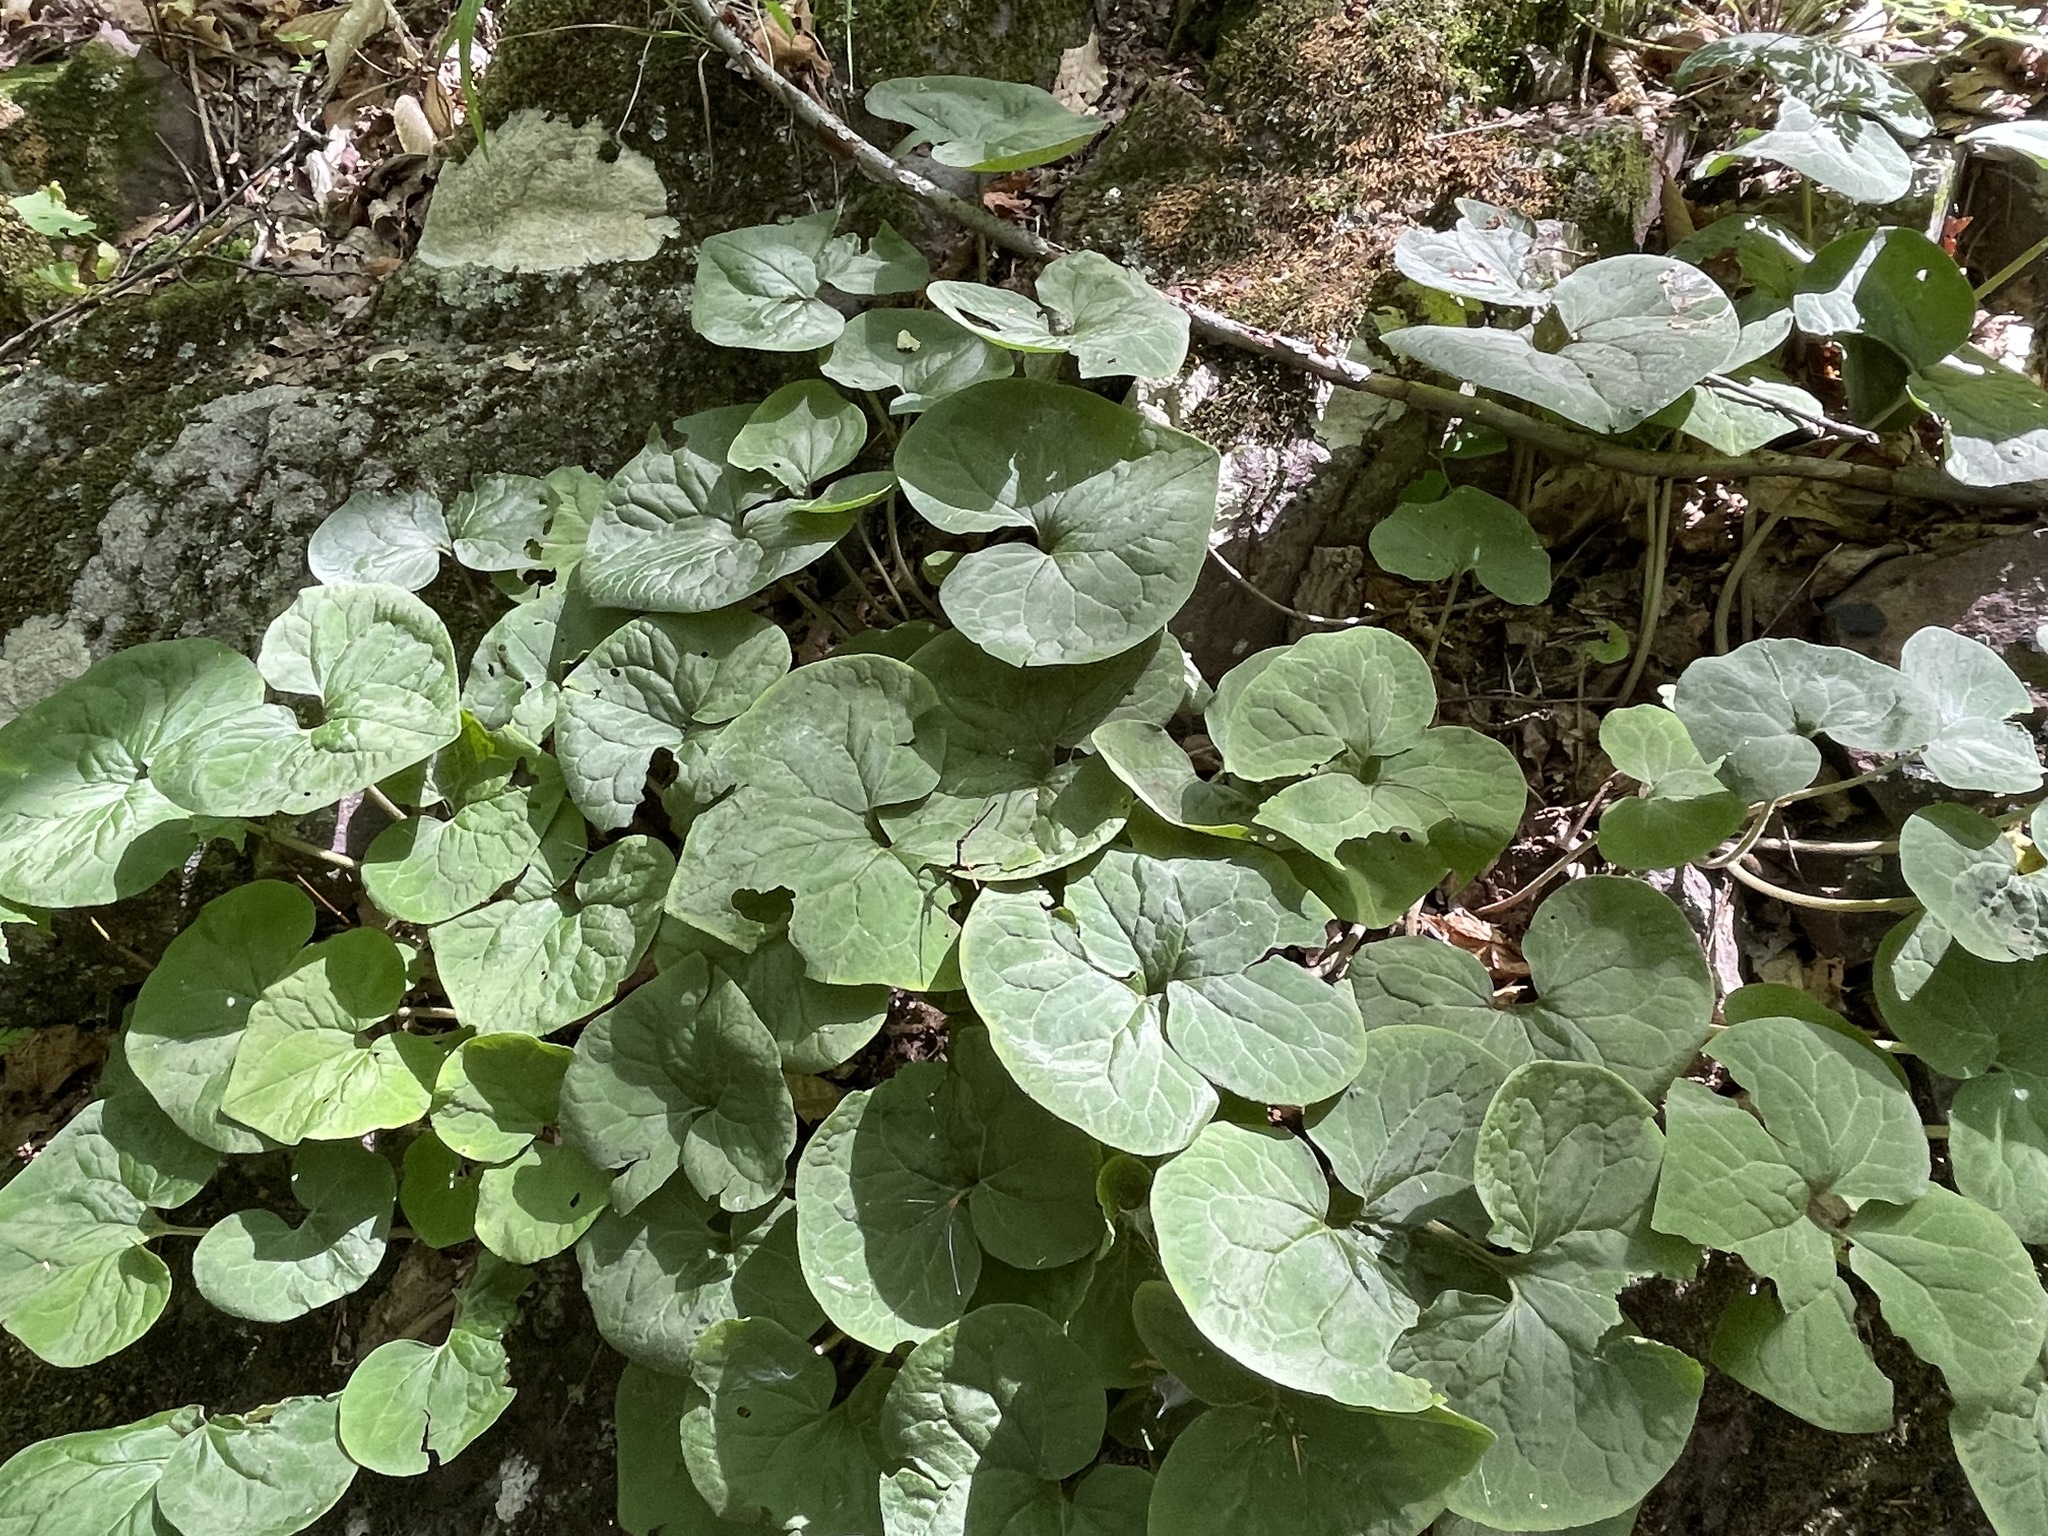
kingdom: Plantae
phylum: Tracheophyta
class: Magnoliopsida
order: Piperales
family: Aristolochiaceae
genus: Asarum
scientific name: Asarum canadense
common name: Wild ginger
